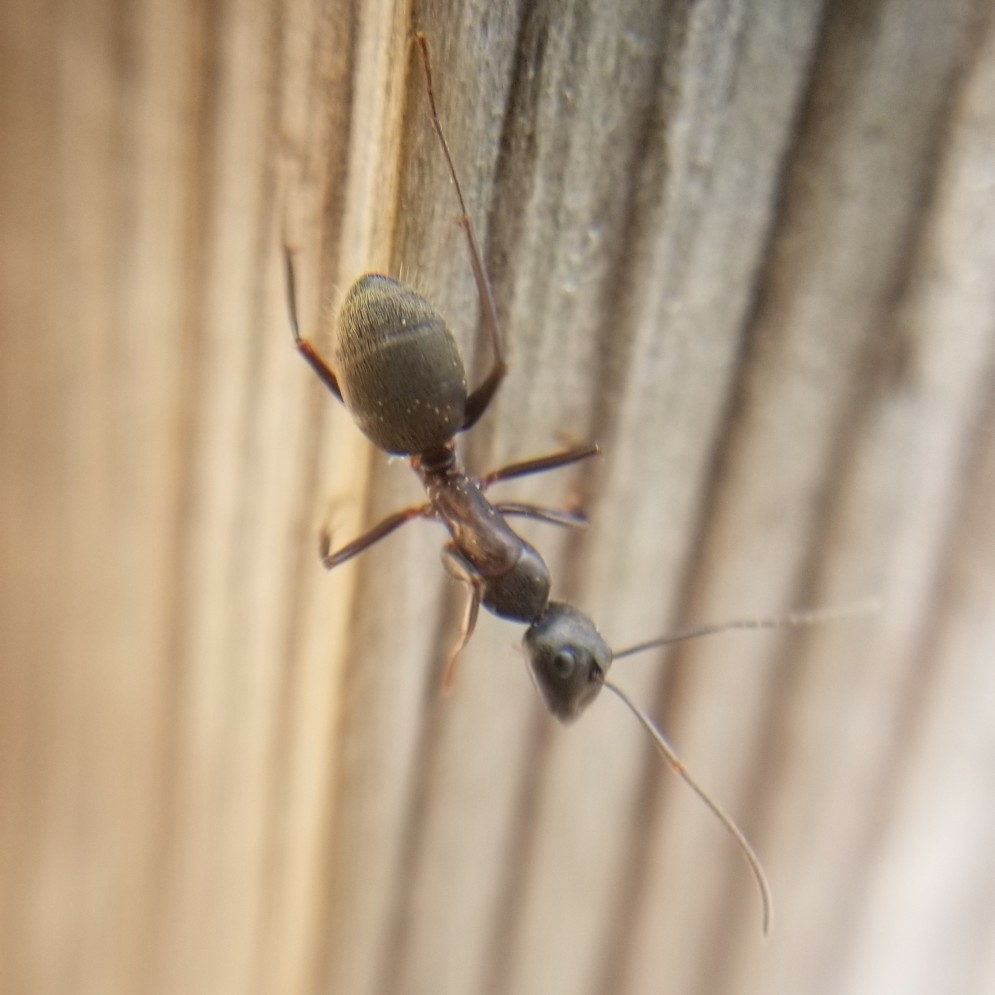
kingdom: Animalia
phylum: Arthropoda
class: Insecta
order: Hymenoptera
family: Formicidae
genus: Camponotus
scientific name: Camponotus chromaiodes
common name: Red carpenter ant
